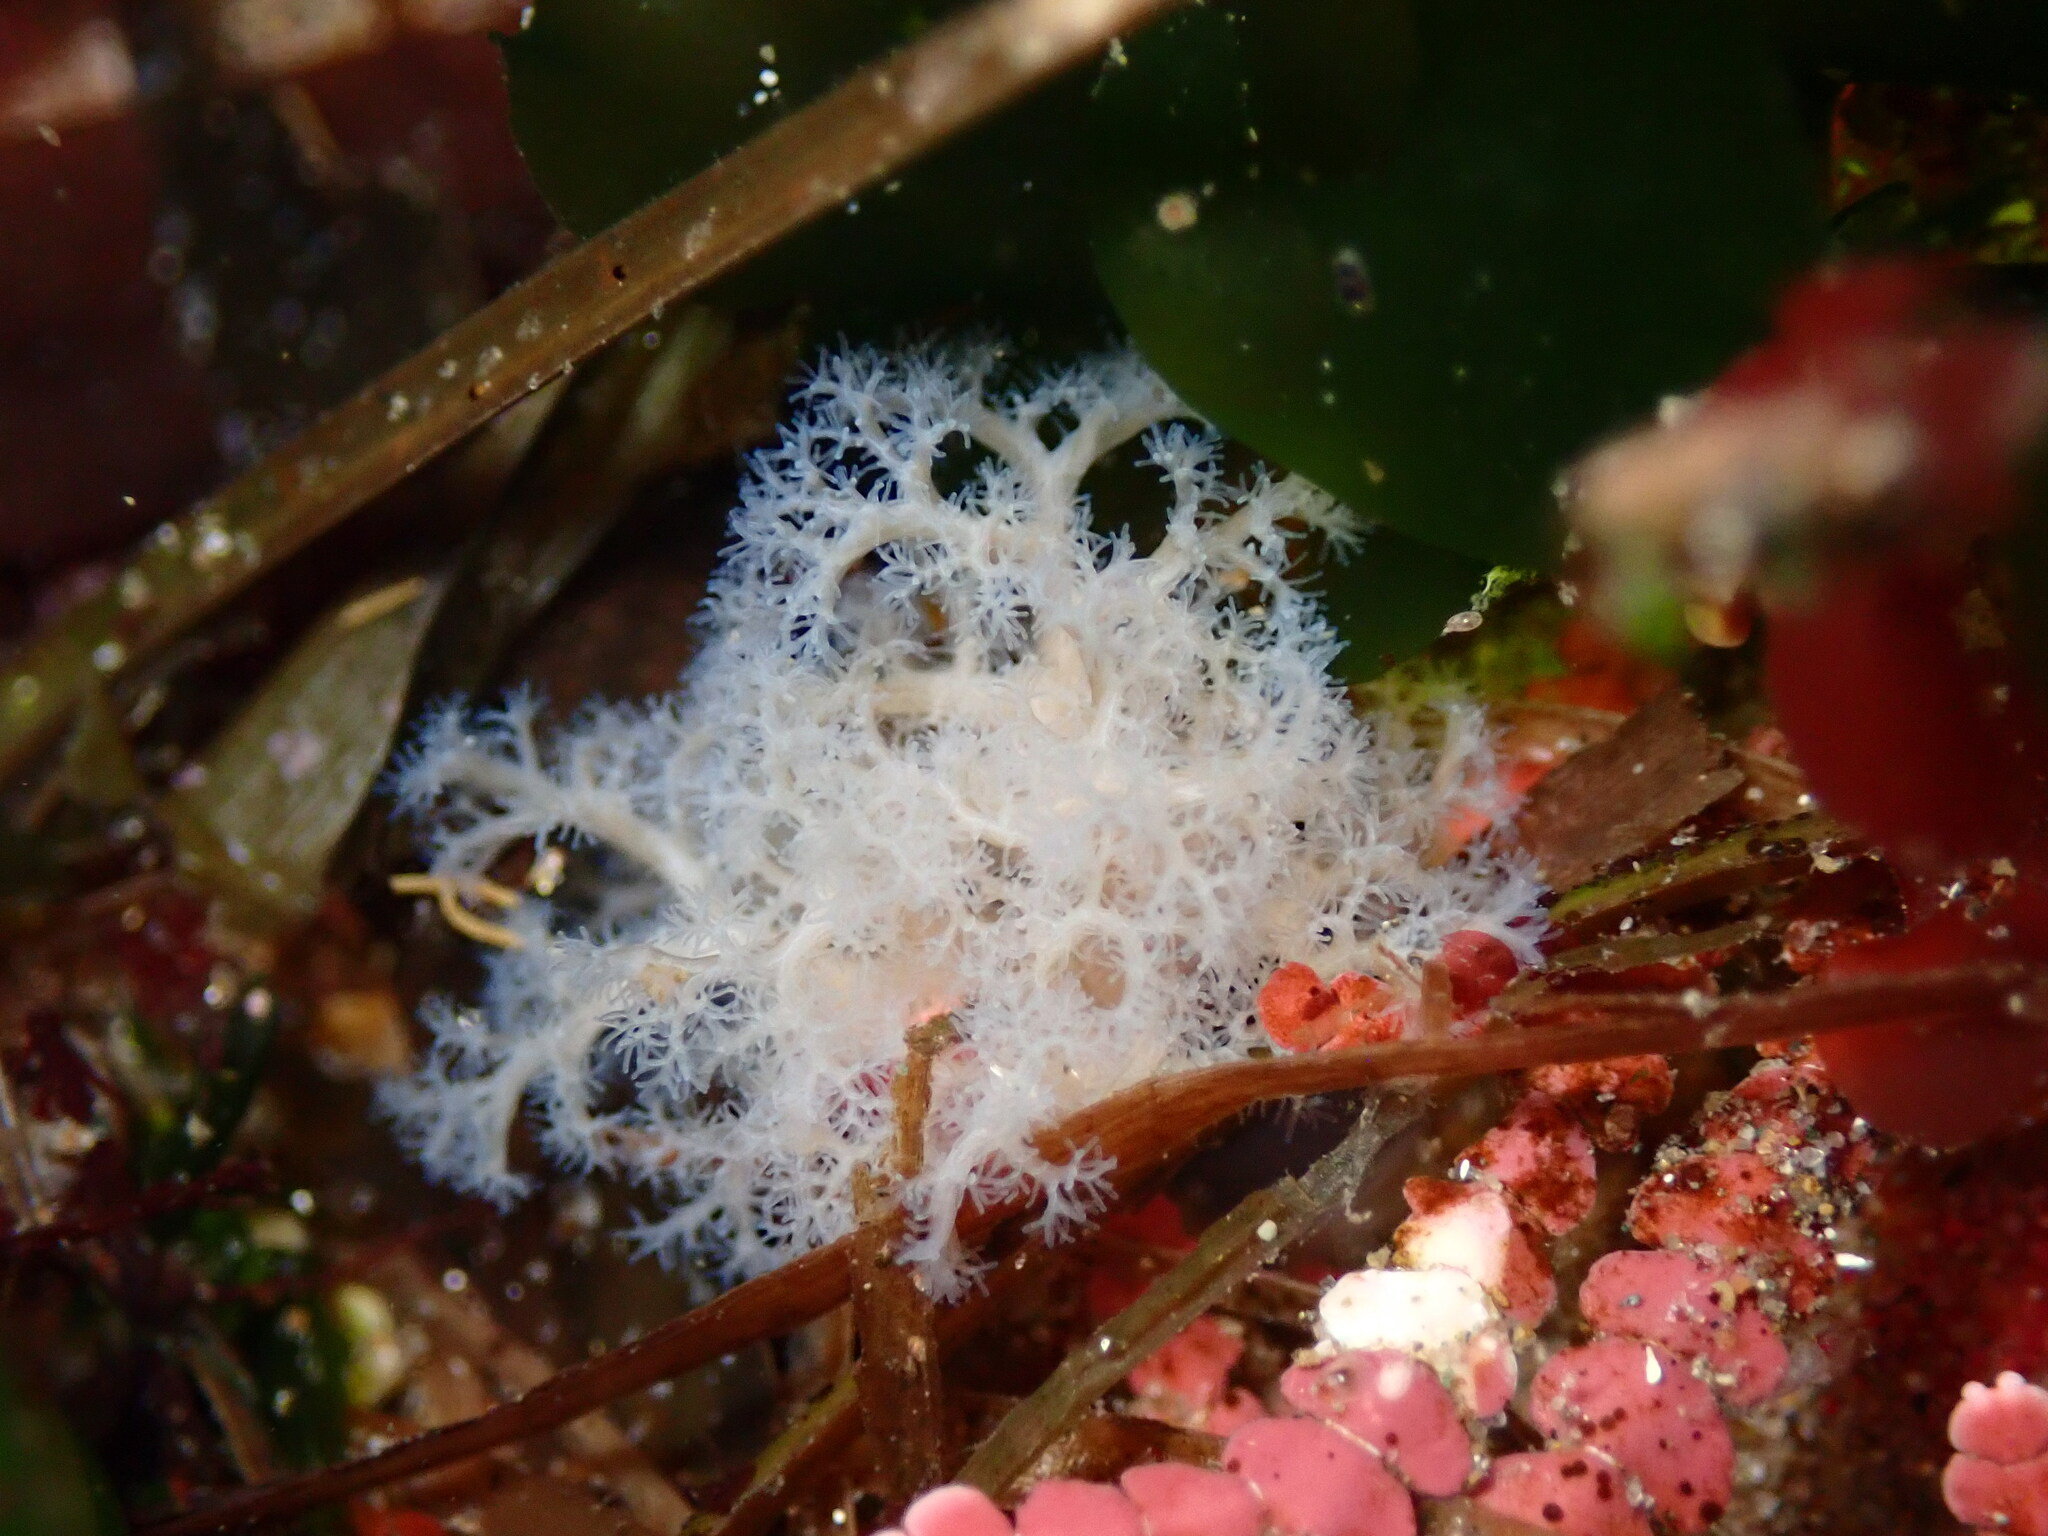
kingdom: Animalia
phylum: Sipuncula
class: Sipunculidea
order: Golfingiiformes
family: Themistidae
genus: Themiste
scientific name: Themiste pyroides
